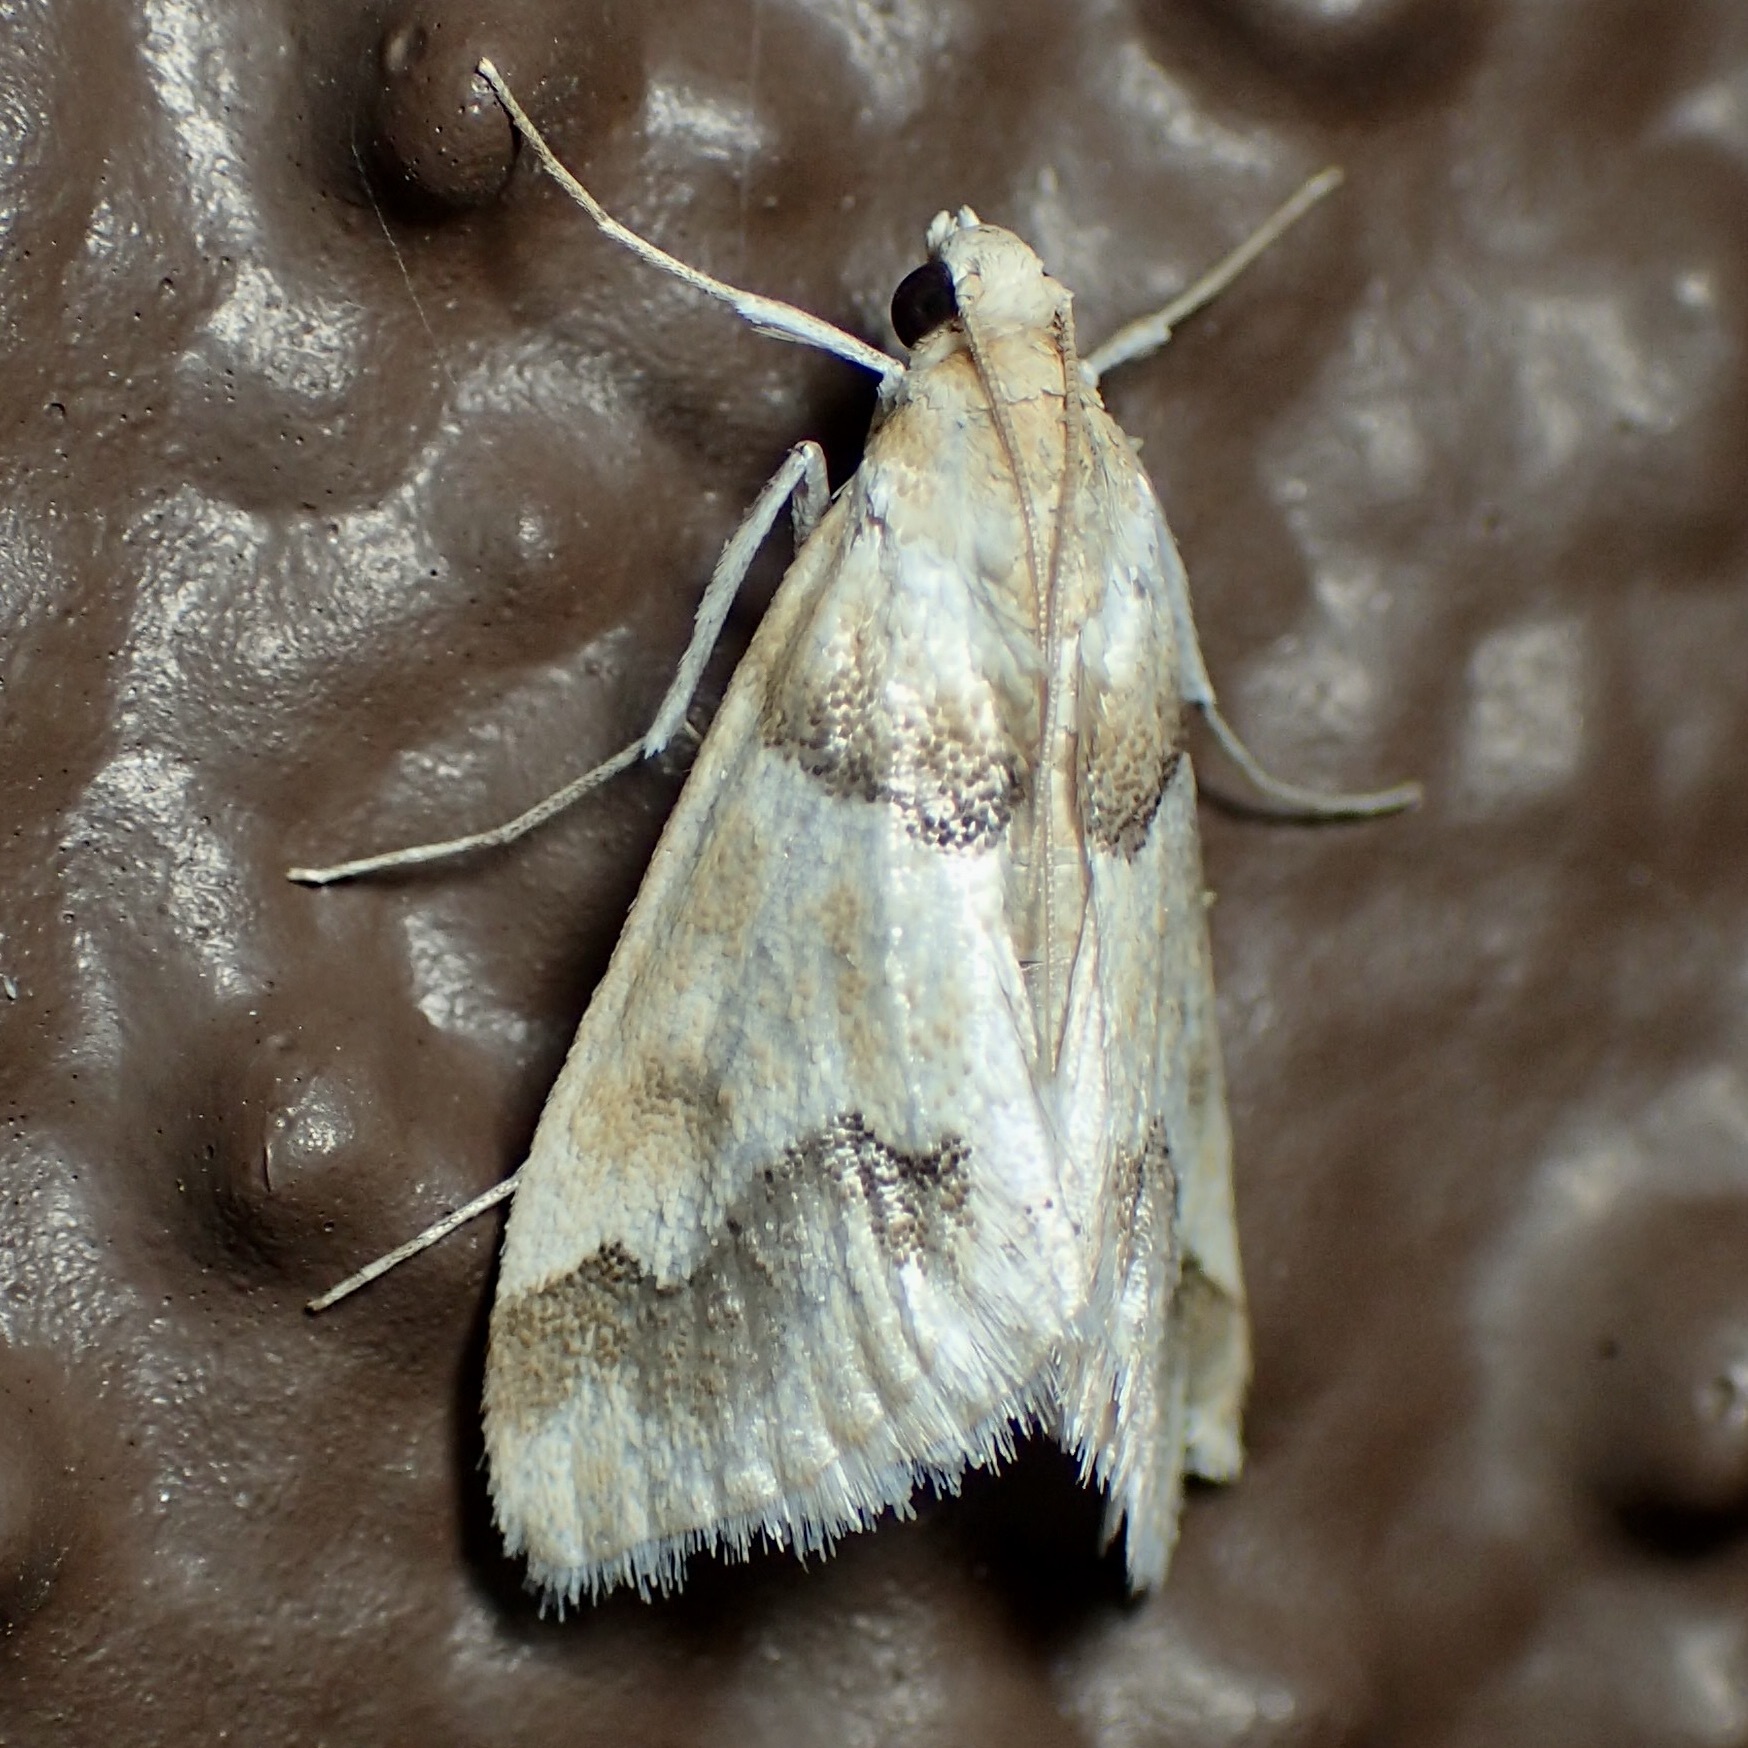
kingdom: Animalia
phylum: Arthropoda
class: Insecta
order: Lepidoptera
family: Crambidae
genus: Pseudoschinia
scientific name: Pseudoschinia elautalis
